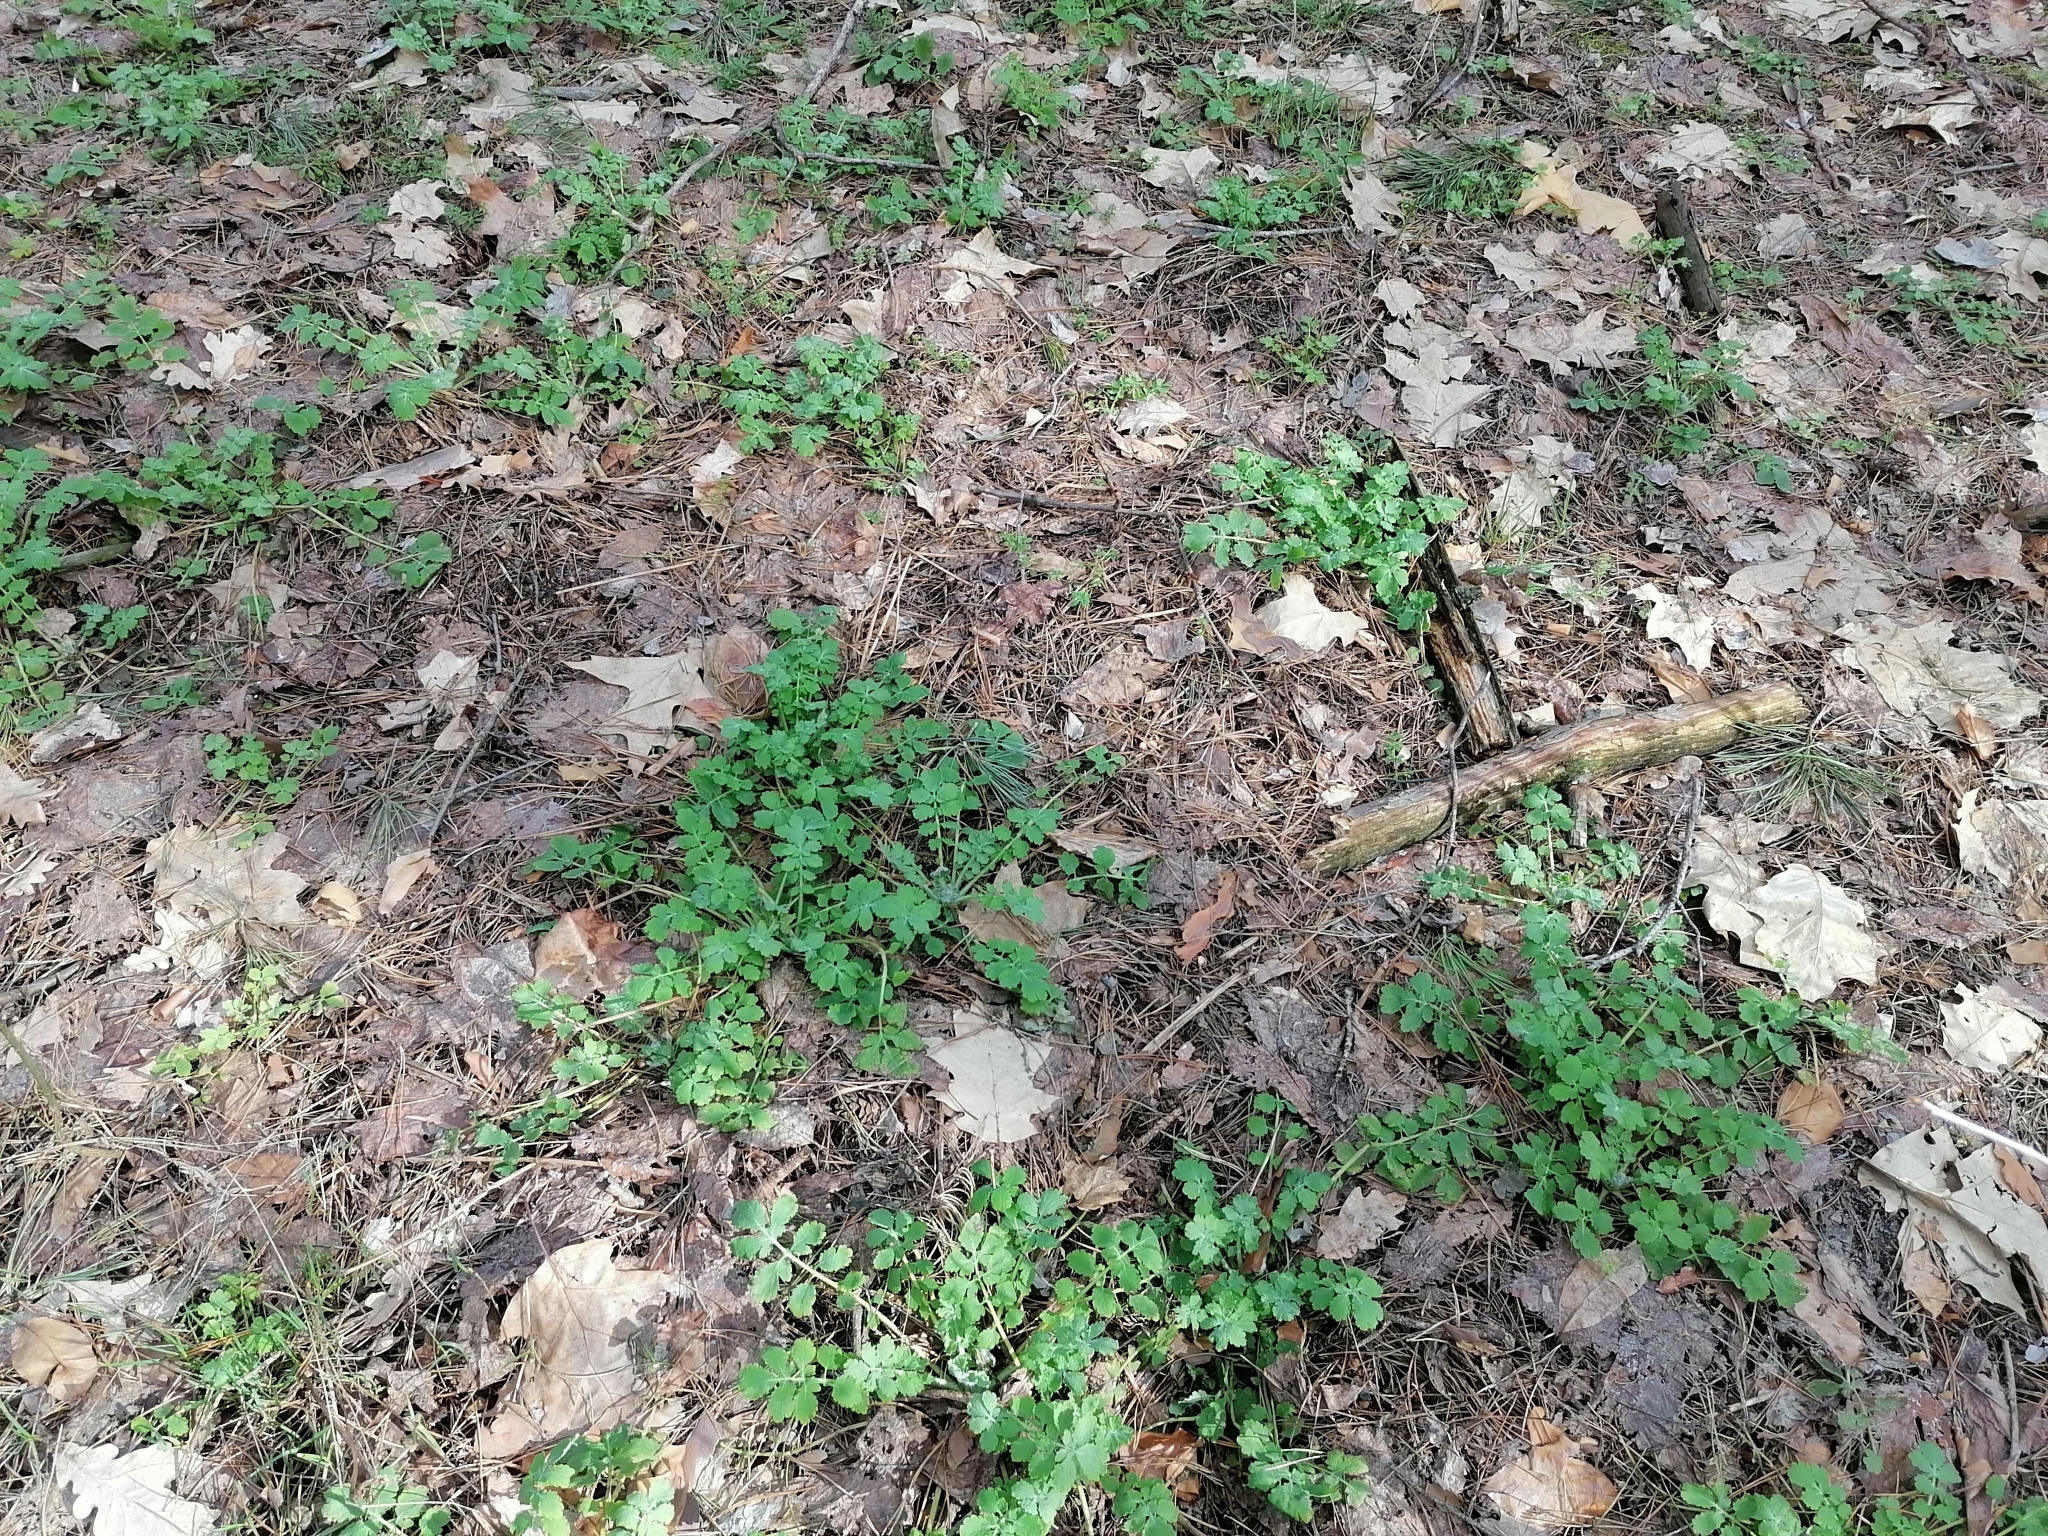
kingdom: Plantae
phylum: Tracheophyta
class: Magnoliopsida
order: Ranunculales
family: Papaveraceae
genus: Chelidonium
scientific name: Chelidonium majus
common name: Greater celandine
